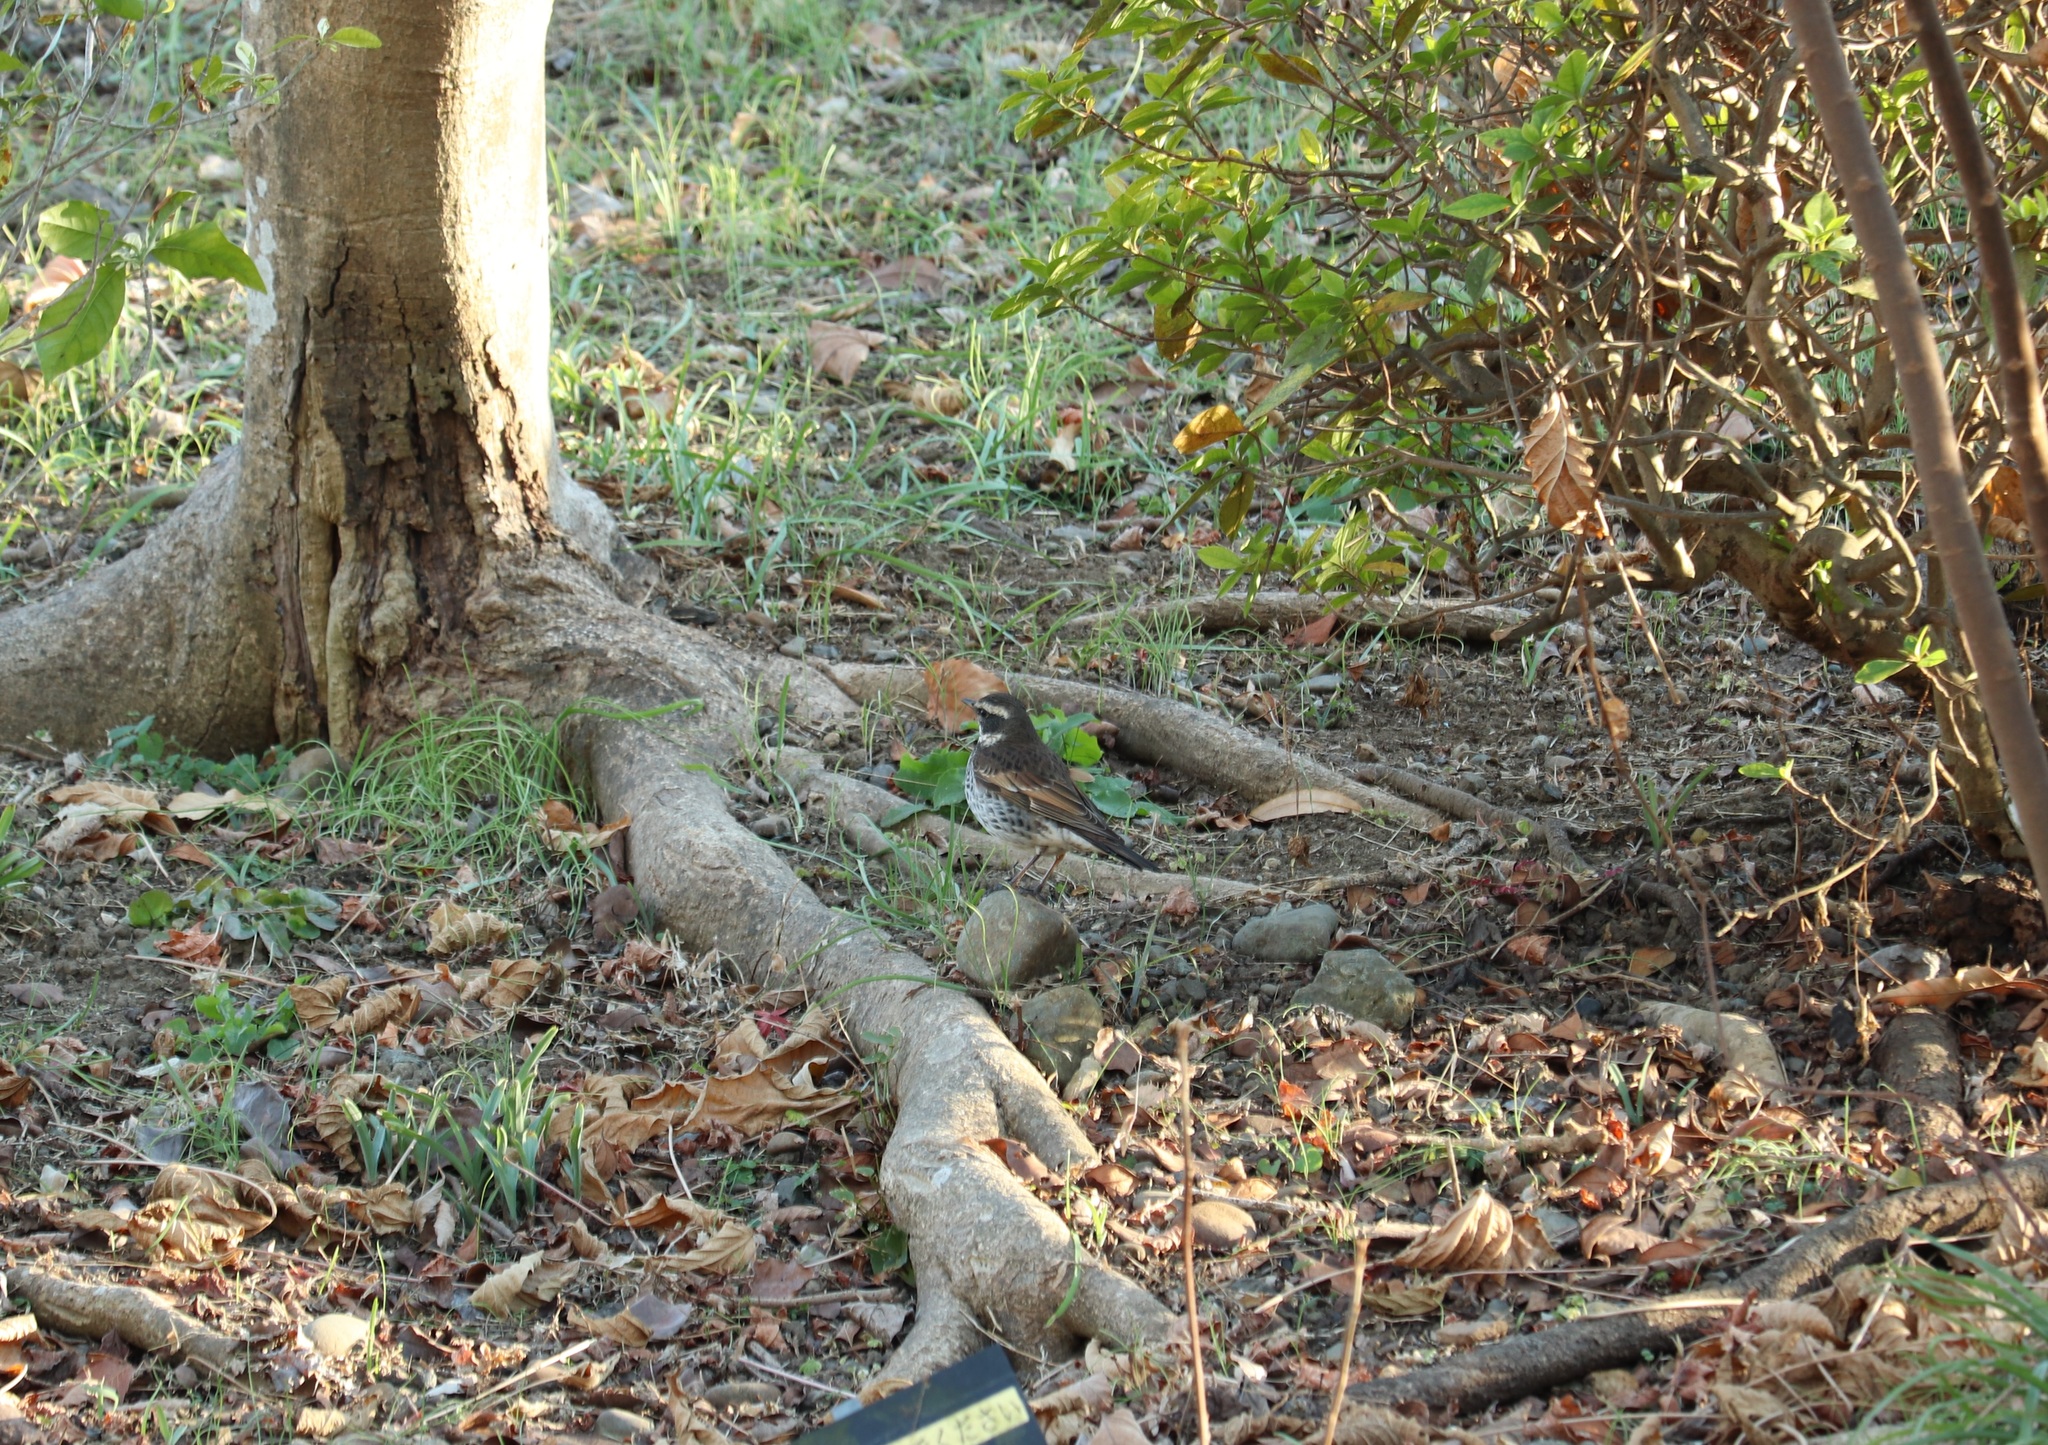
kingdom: Animalia
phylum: Chordata
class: Aves
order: Passeriformes
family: Turdidae
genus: Turdus
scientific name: Turdus eunomus
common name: Dusky thrush
